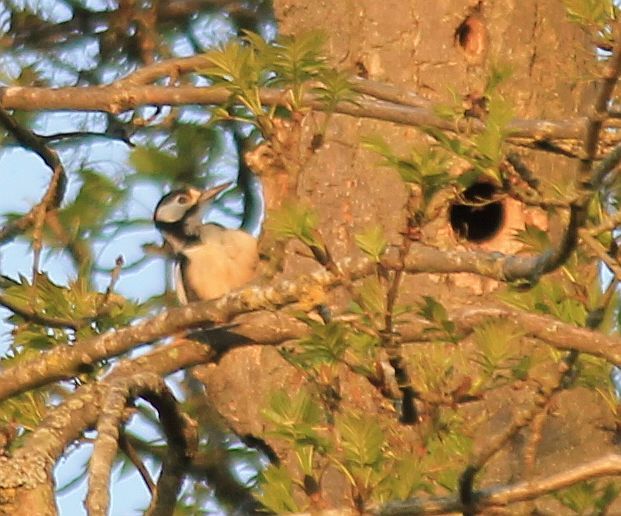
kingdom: Animalia
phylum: Chordata
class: Aves
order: Piciformes
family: Picidae
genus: Dendrocopos
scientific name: Dendrocopos major
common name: Great spotted woodpecker
